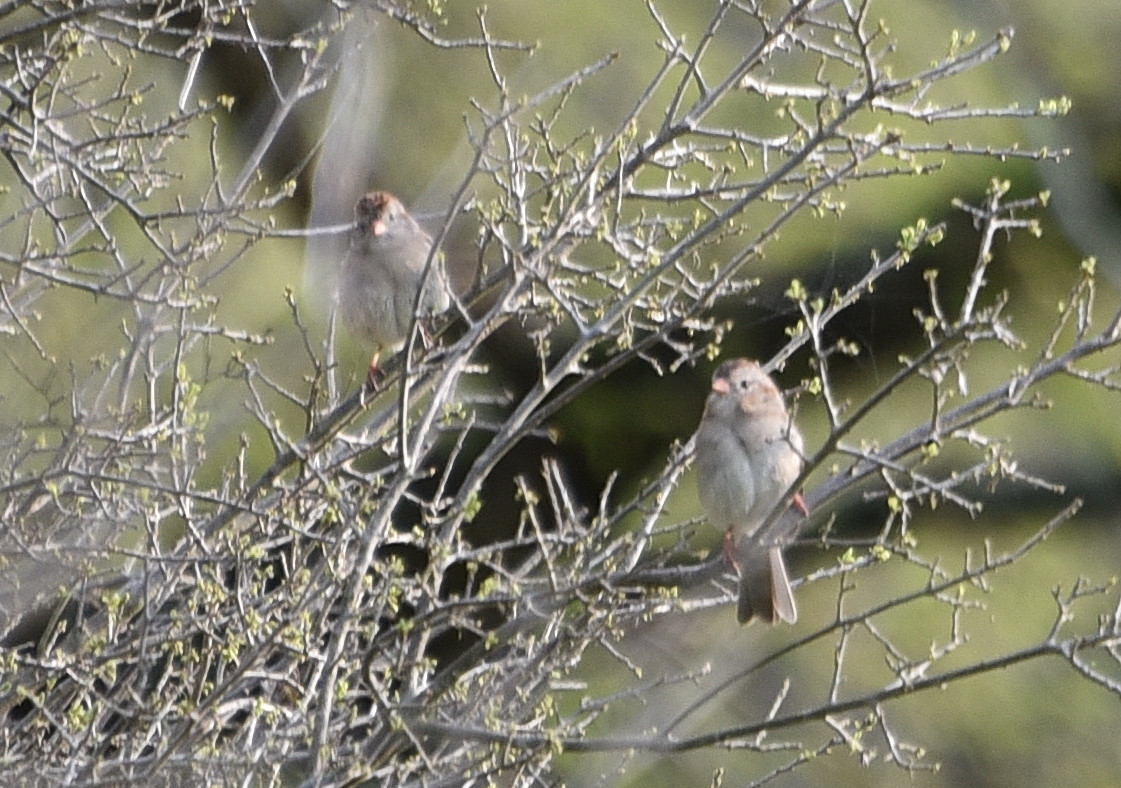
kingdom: Animalia
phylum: Chordata
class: Aves
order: Passeriformes
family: Passerellidae
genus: Spizella
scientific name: Spizella pusilla
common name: Field sparrow
